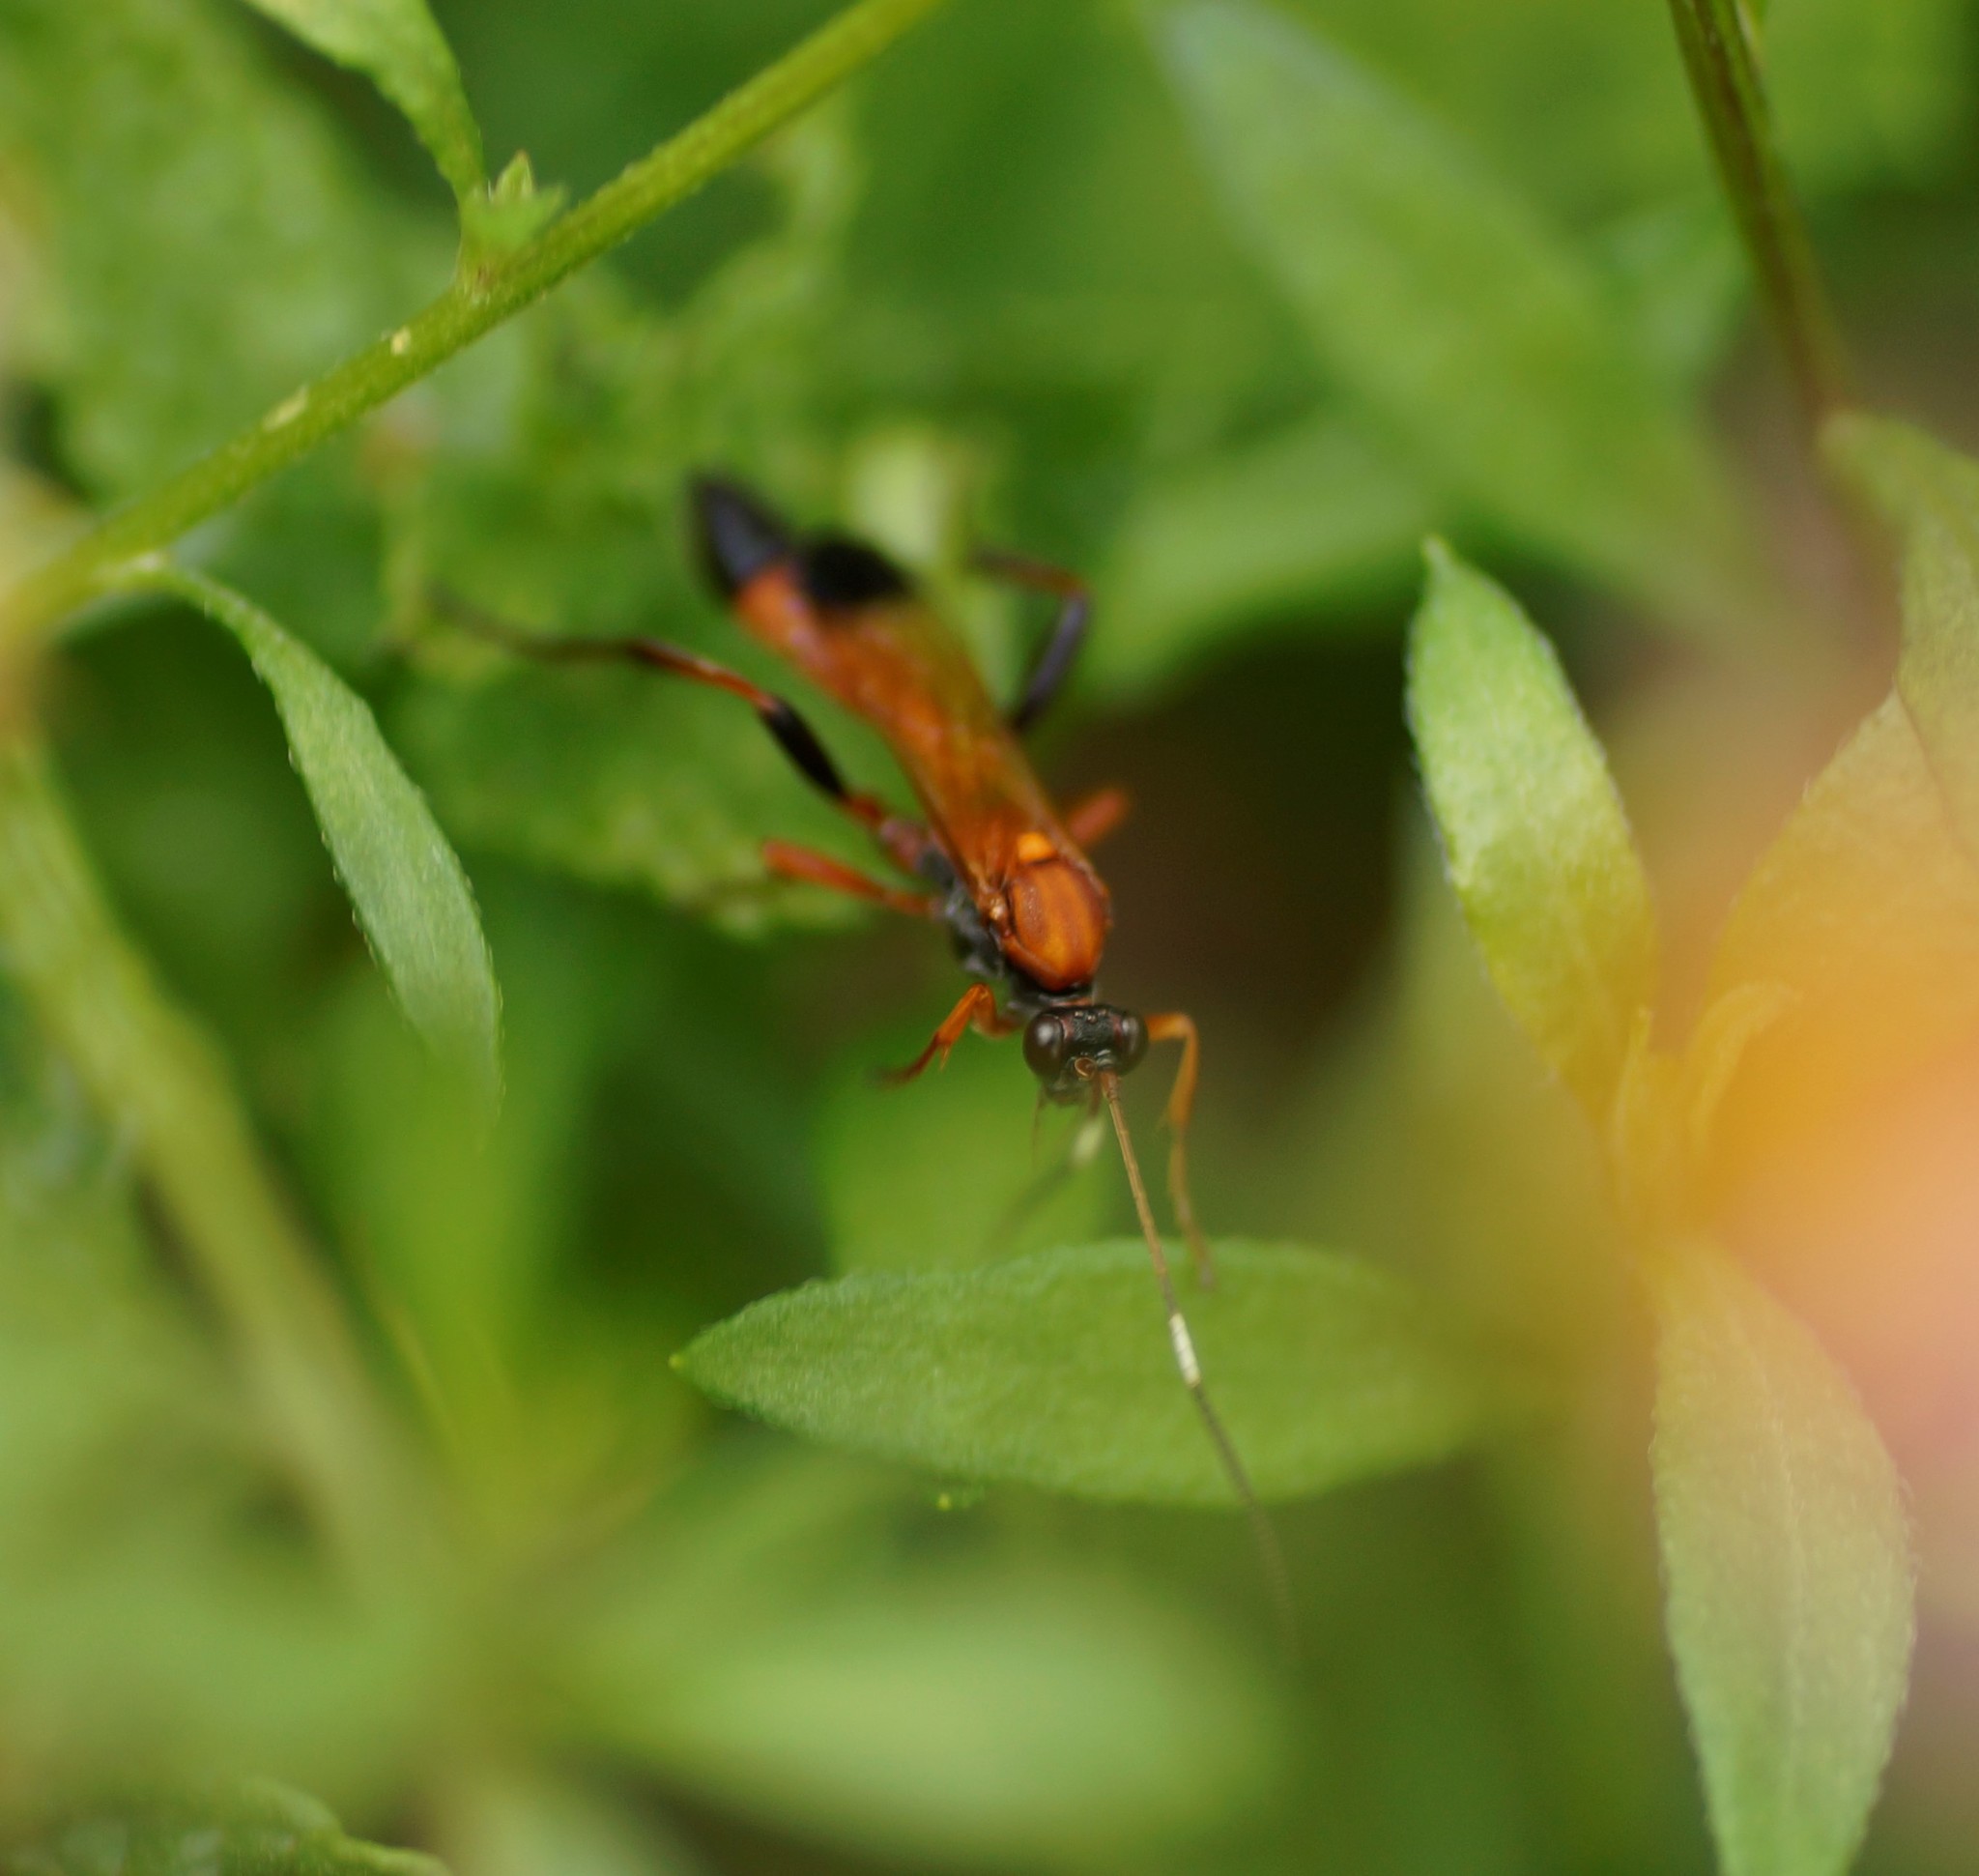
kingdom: Animalia
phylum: Arthropoda
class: Insecta
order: Hymenoptera
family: Ichneumonidae
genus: Ctenochares
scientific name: Ctenochares bicolorus
